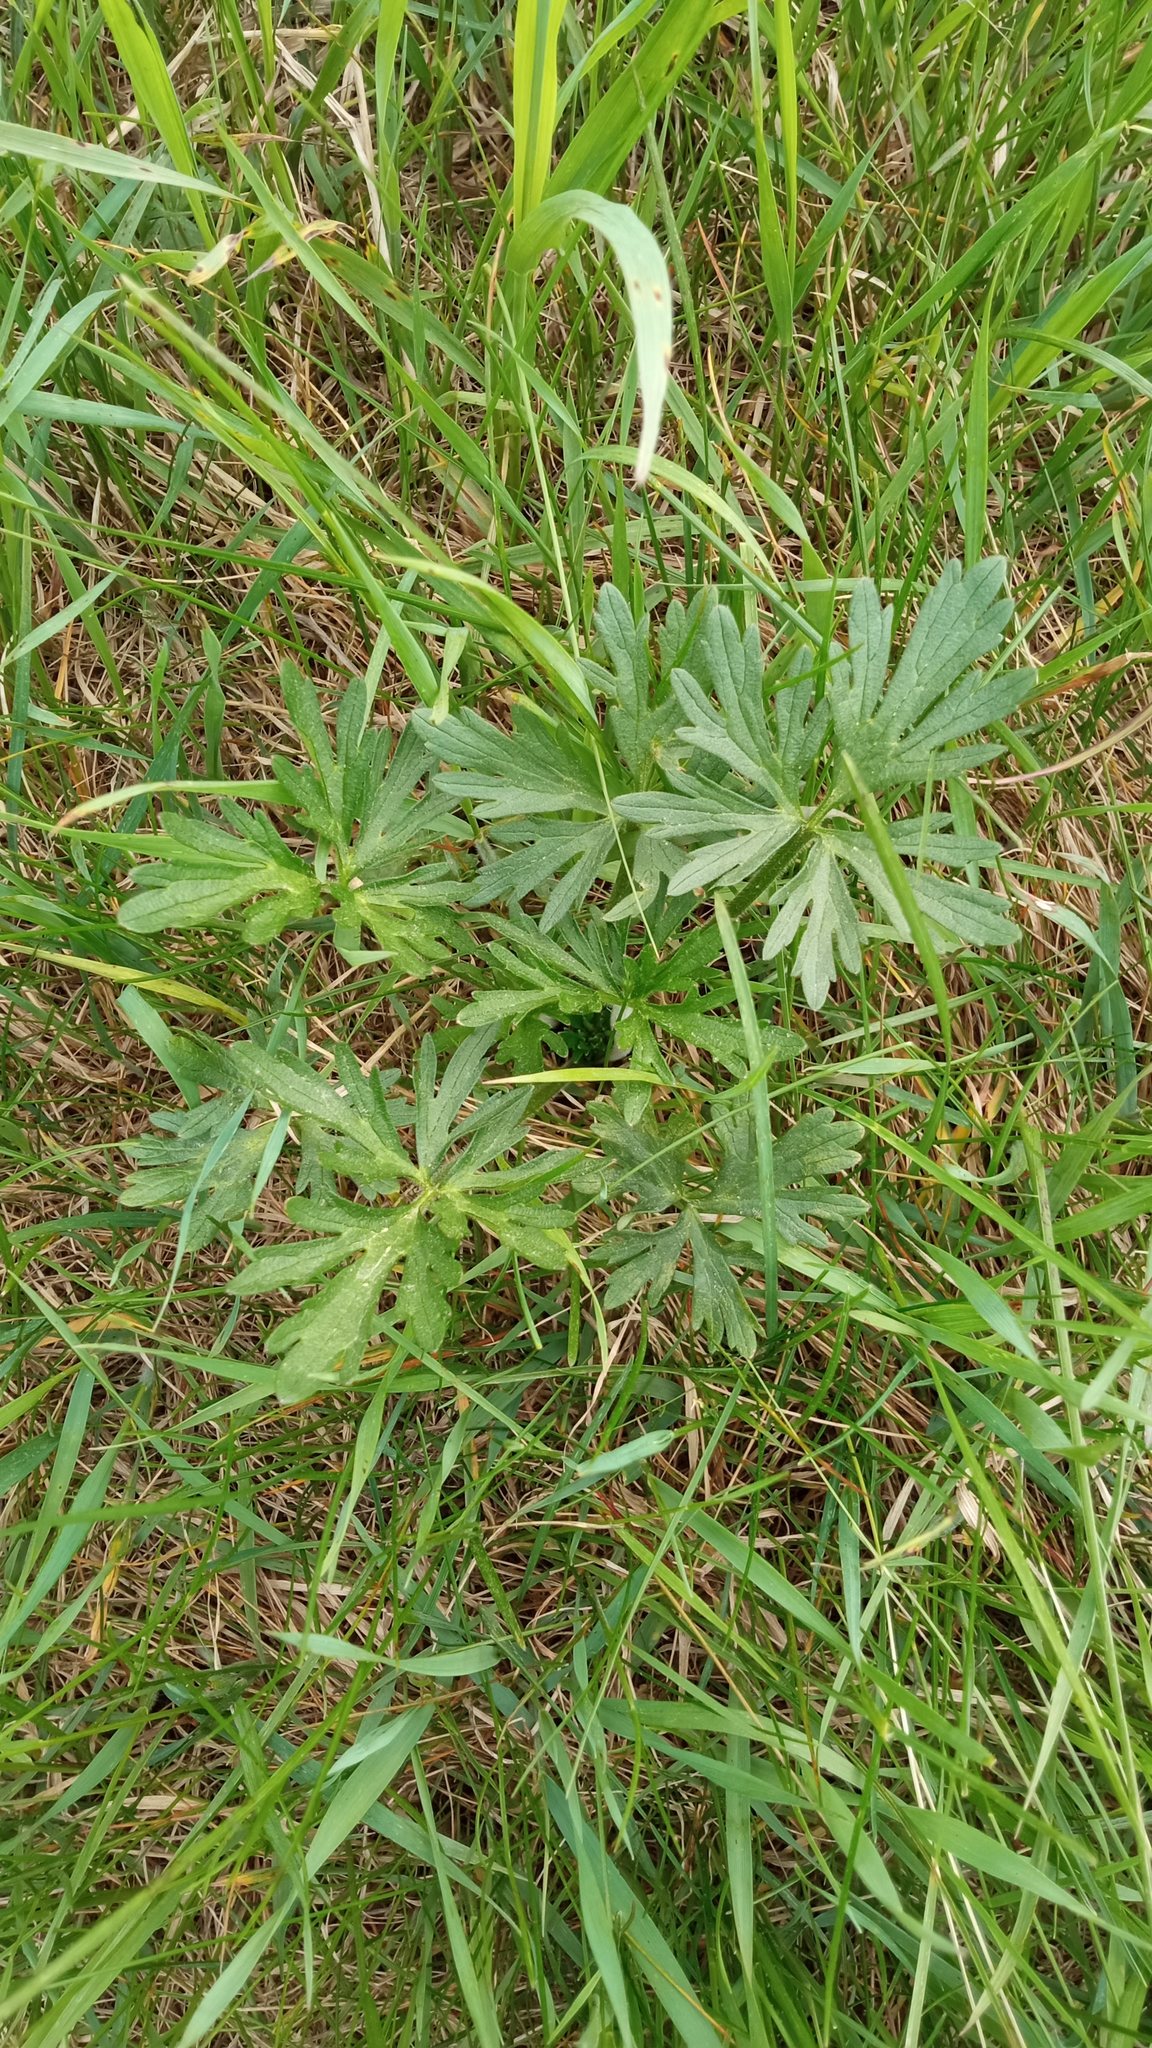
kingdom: Plantae
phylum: Tracheophyta
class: Magnoliopsida
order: Ranunculales
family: Ranunculaceae
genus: Ranunculus
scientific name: Ranunculus polyanthemos
